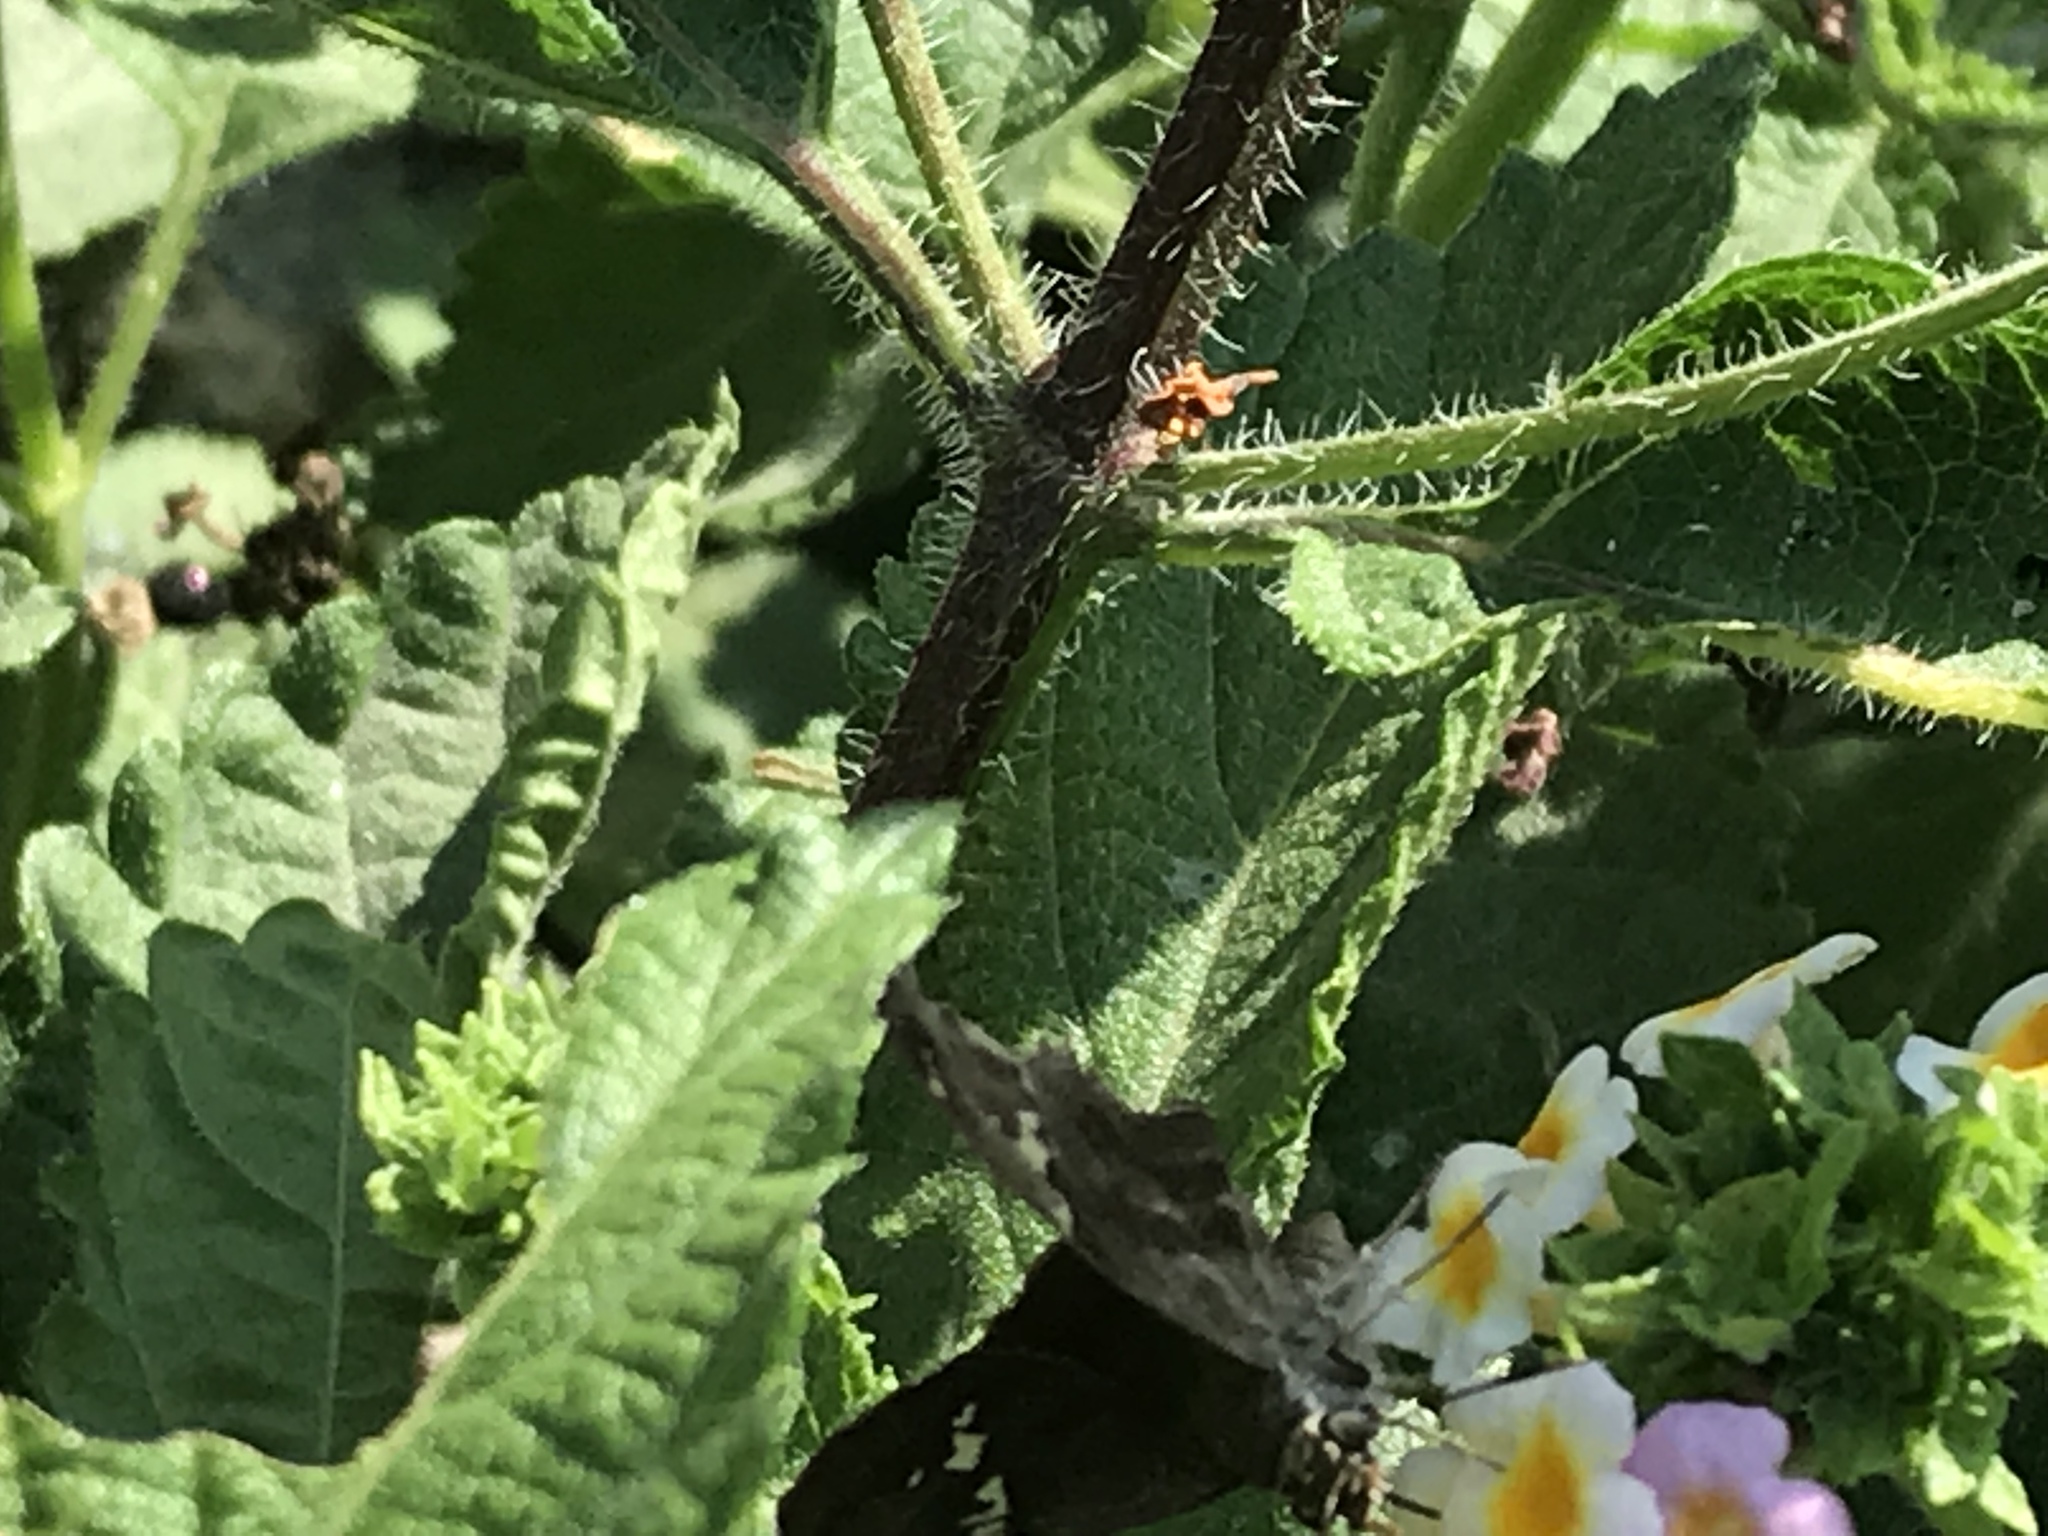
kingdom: Animalia
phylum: Arthropoda
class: Insecta
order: Lepidoptera
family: Hesperiidae
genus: Autochton
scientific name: Autochton potrillo
